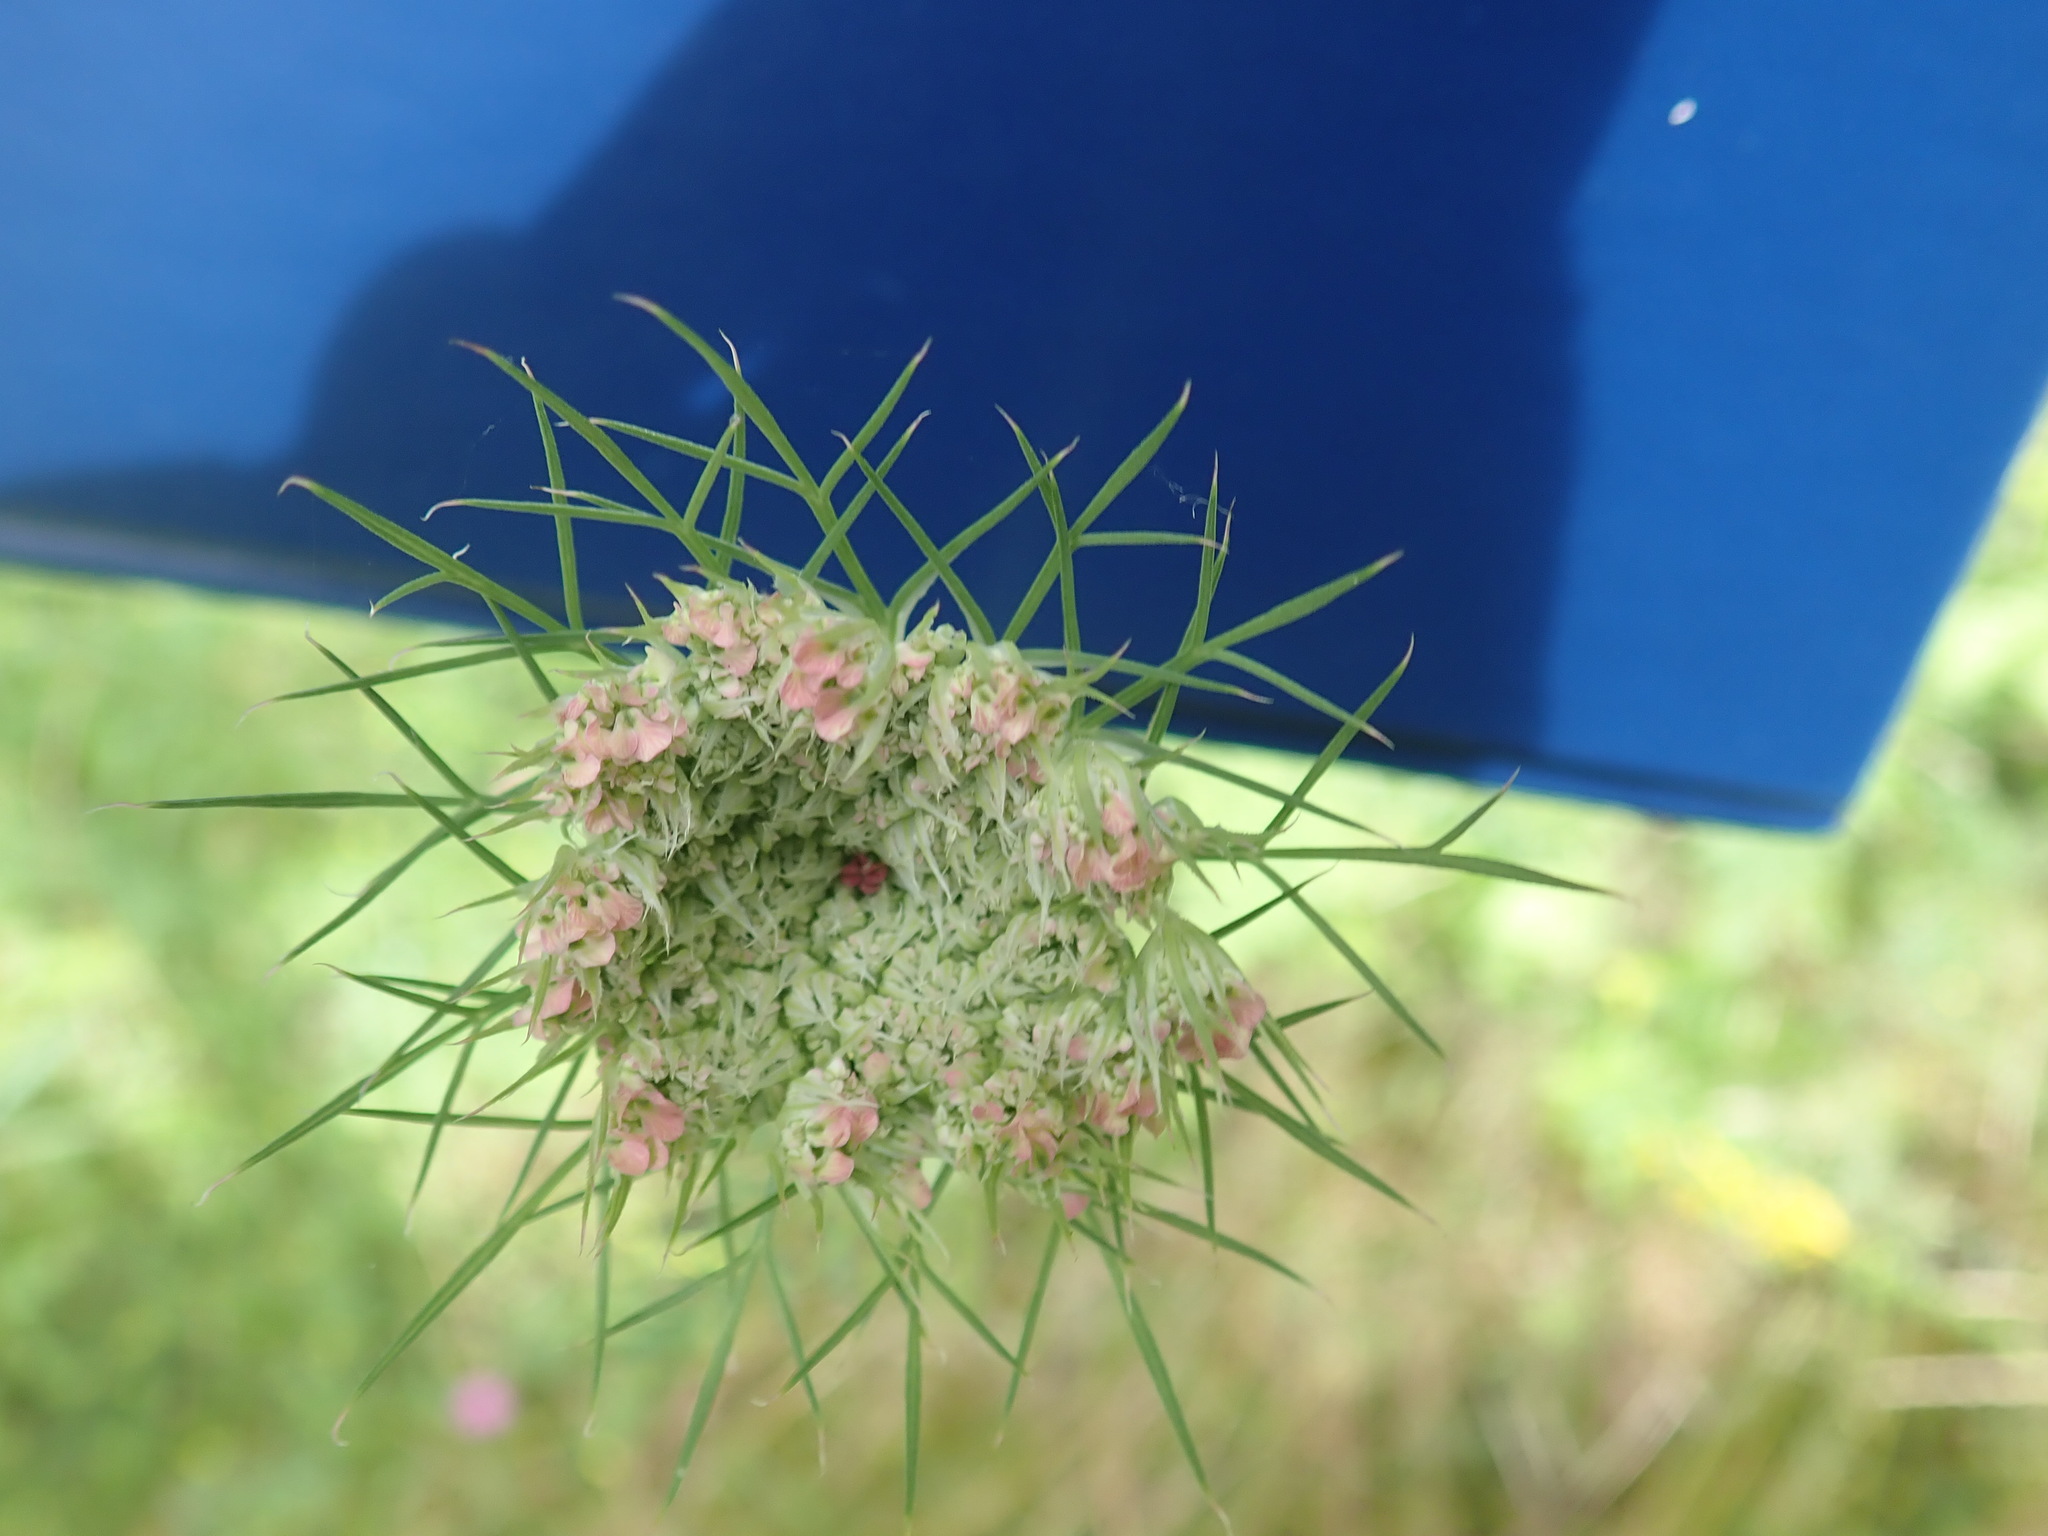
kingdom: Plantae
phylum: Tracheophyta
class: Magnoliopsida
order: Apiales
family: Apiaceae
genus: Daucus
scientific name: Daucus carota
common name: Wild carrot
